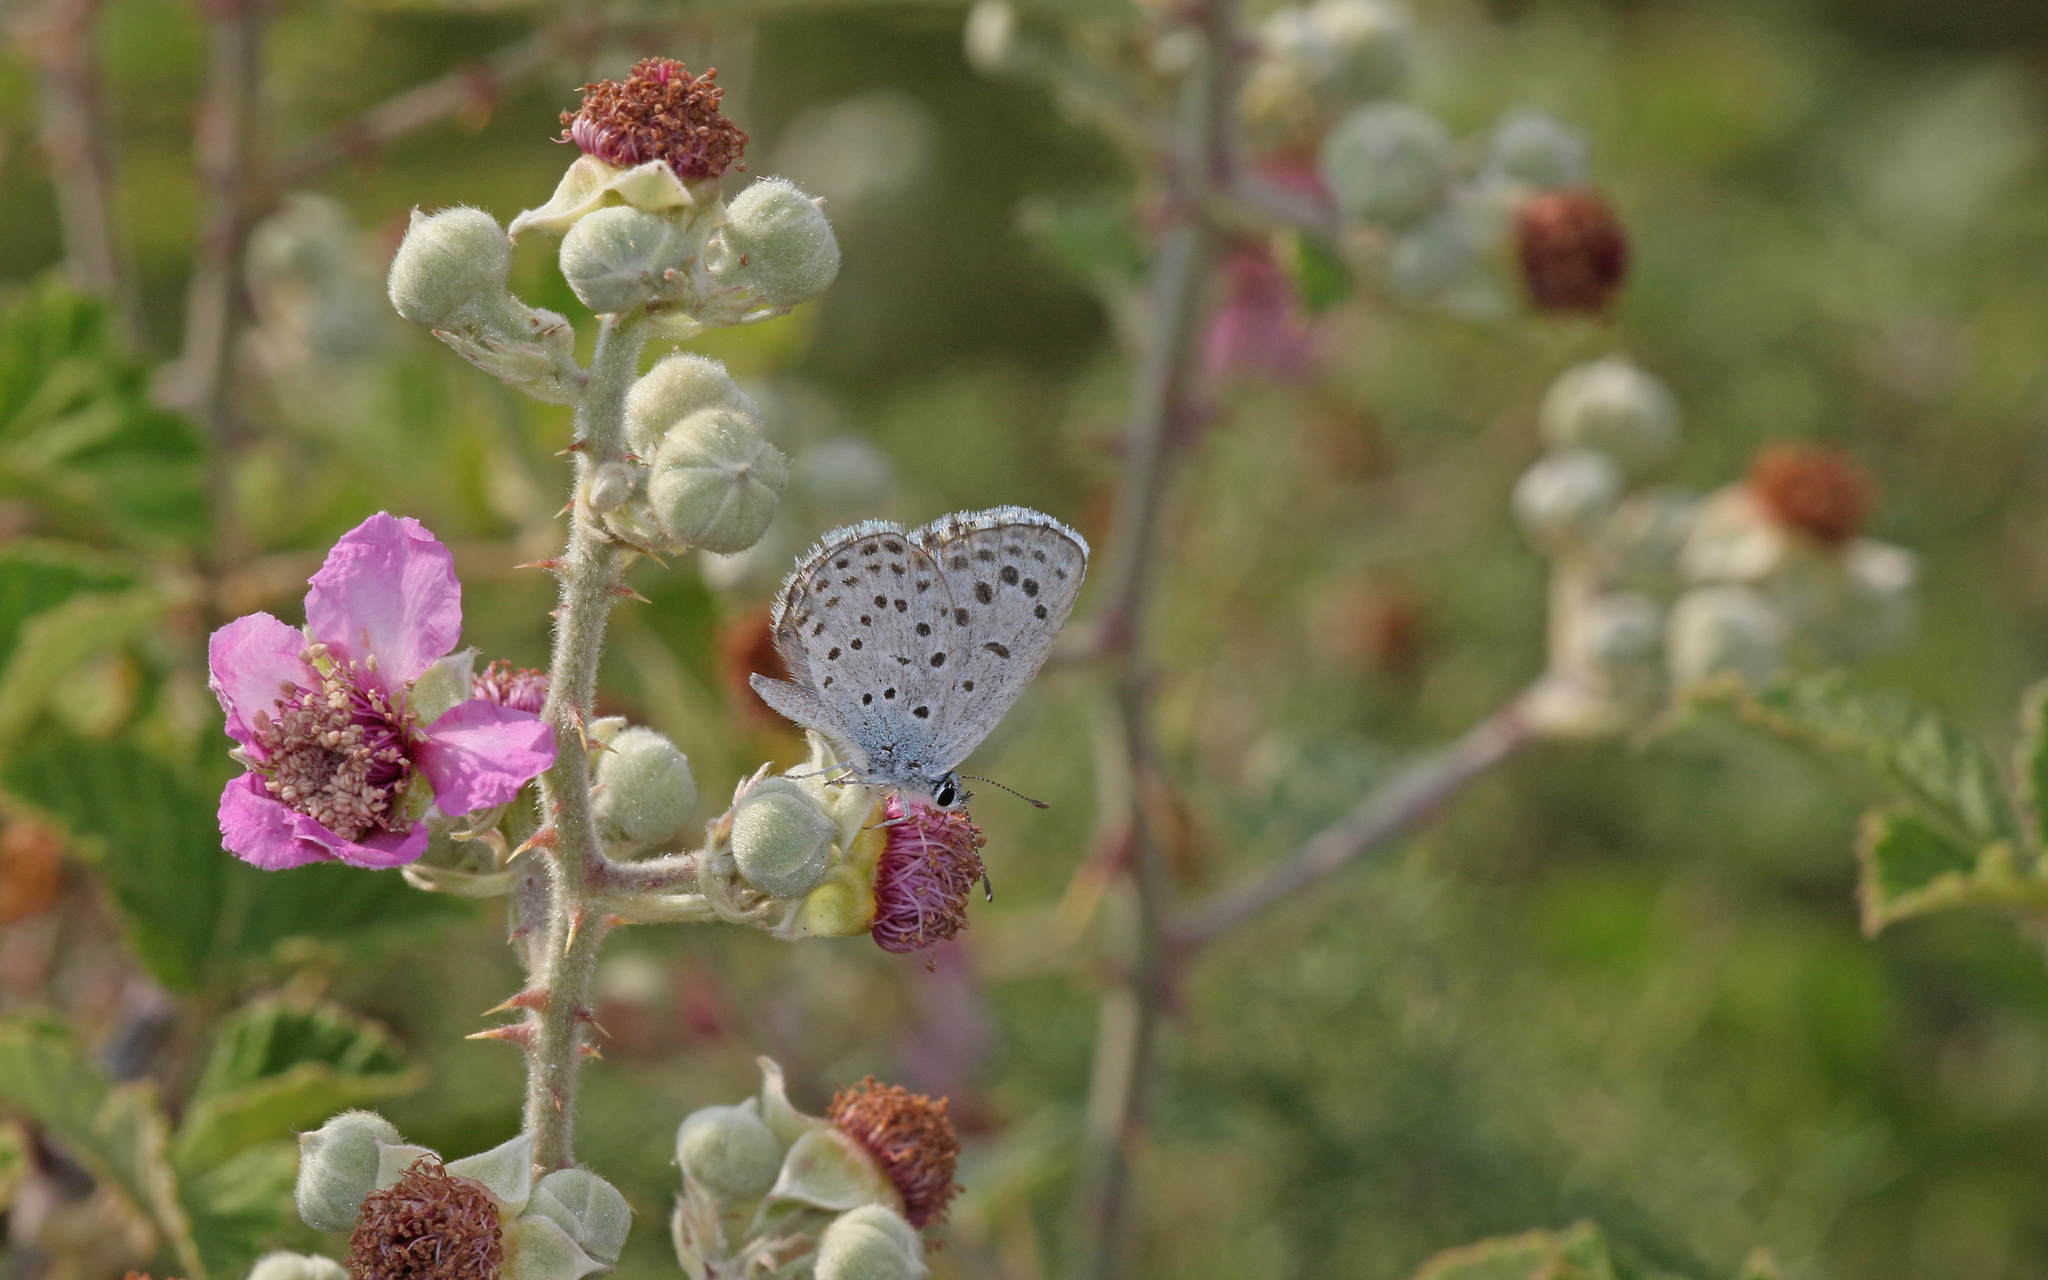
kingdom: Animalia
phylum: Arthropoda
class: Insecta
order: Lepidoptera
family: Lycaenidae
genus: Pseudophilotes
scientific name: Pseudophilotes baton
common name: Baton blue
